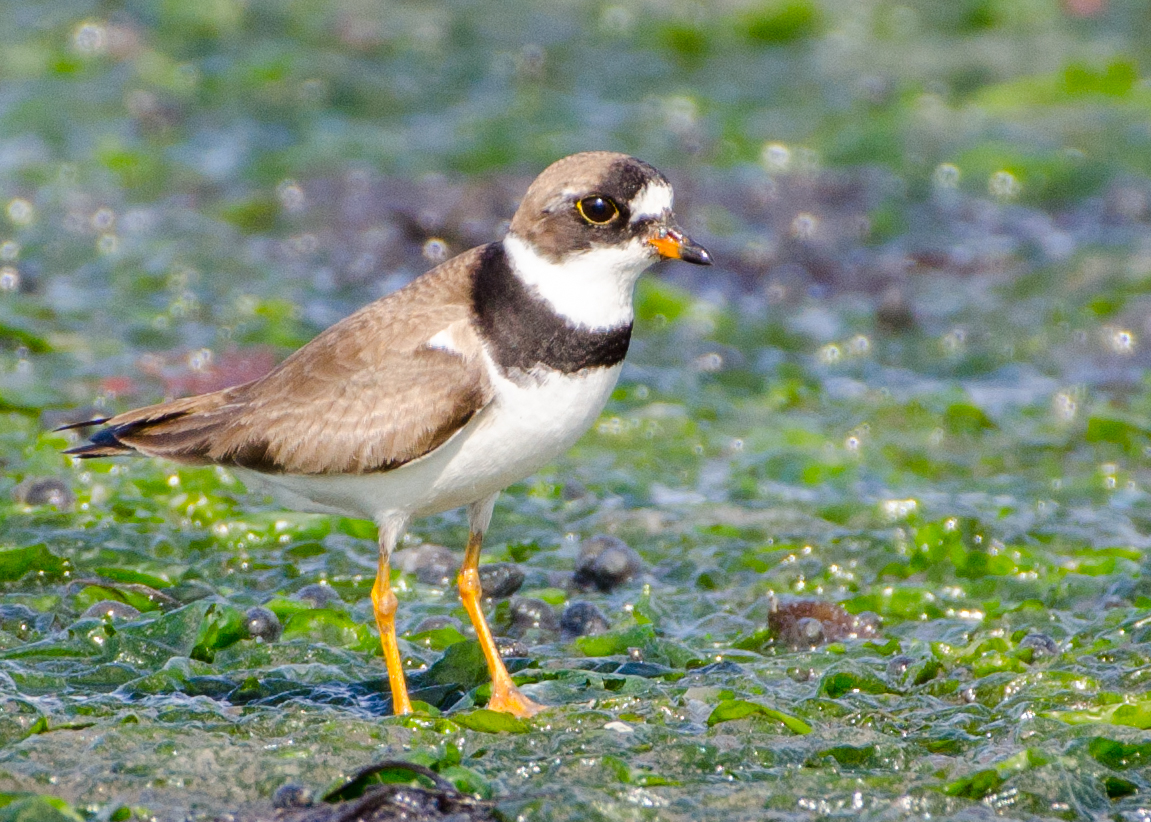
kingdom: Animalia
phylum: Chordata
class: Aves
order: Charadriiformes
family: Charadriidae
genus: Charadrius
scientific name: Charadrius semipalmatus
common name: Semipalmated plover
